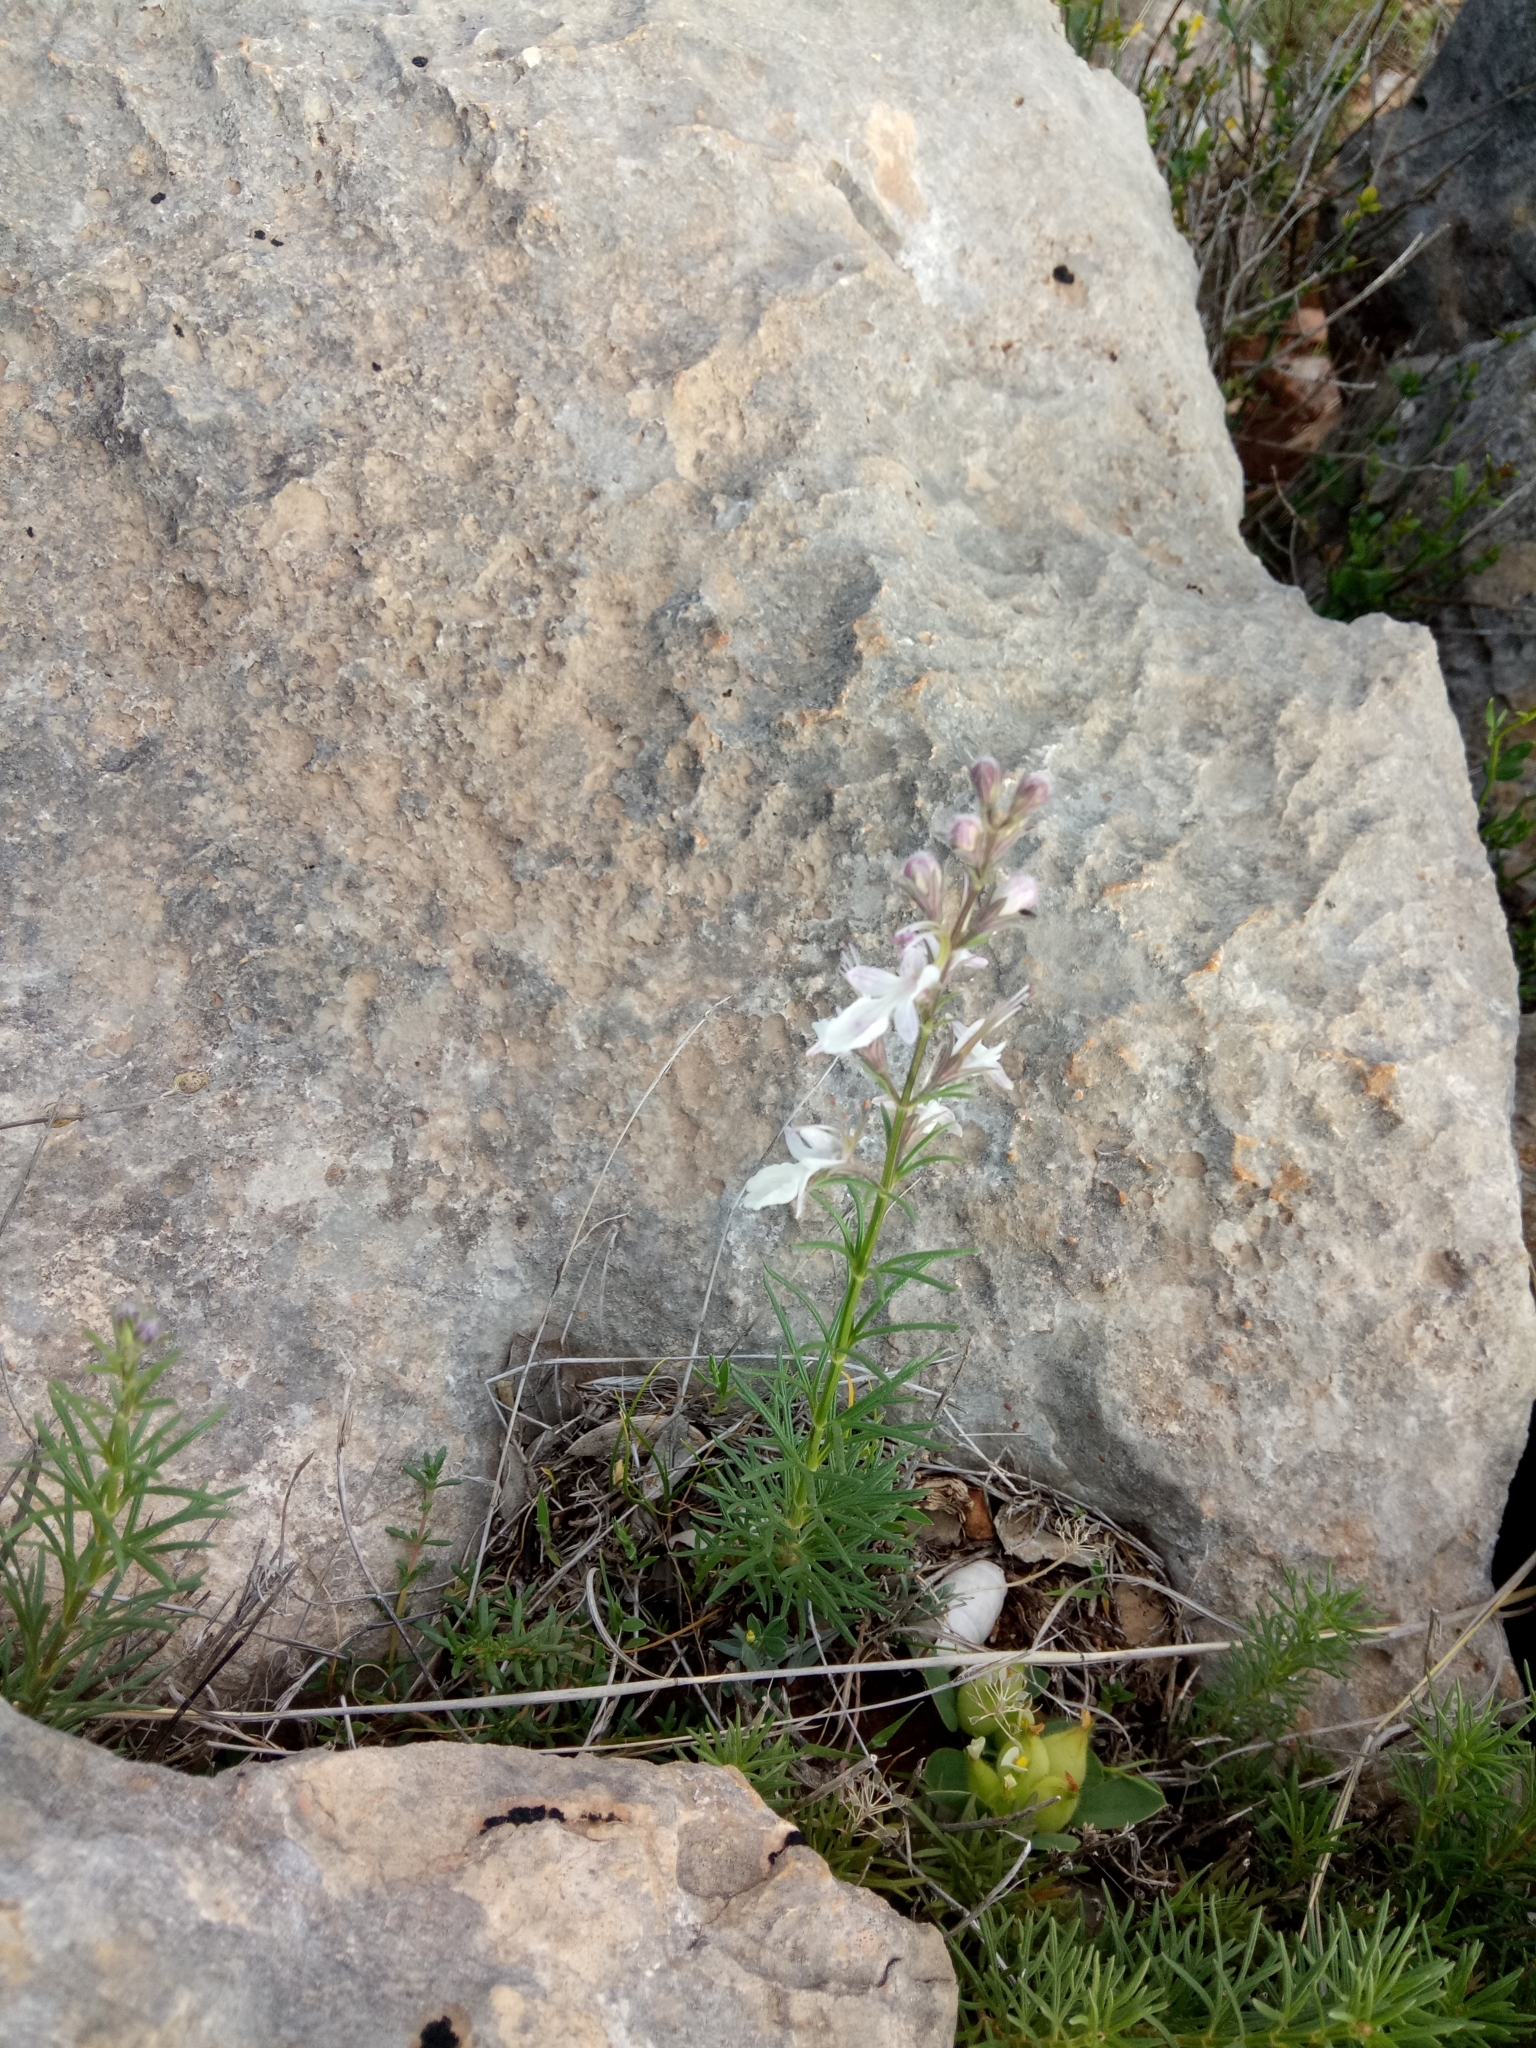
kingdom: Plantae
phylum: Tracheophyta
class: Magnoliopsida
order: Lamiales
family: Lamiaceae
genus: Teucrium
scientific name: Teucrium pseudochamaepitys
